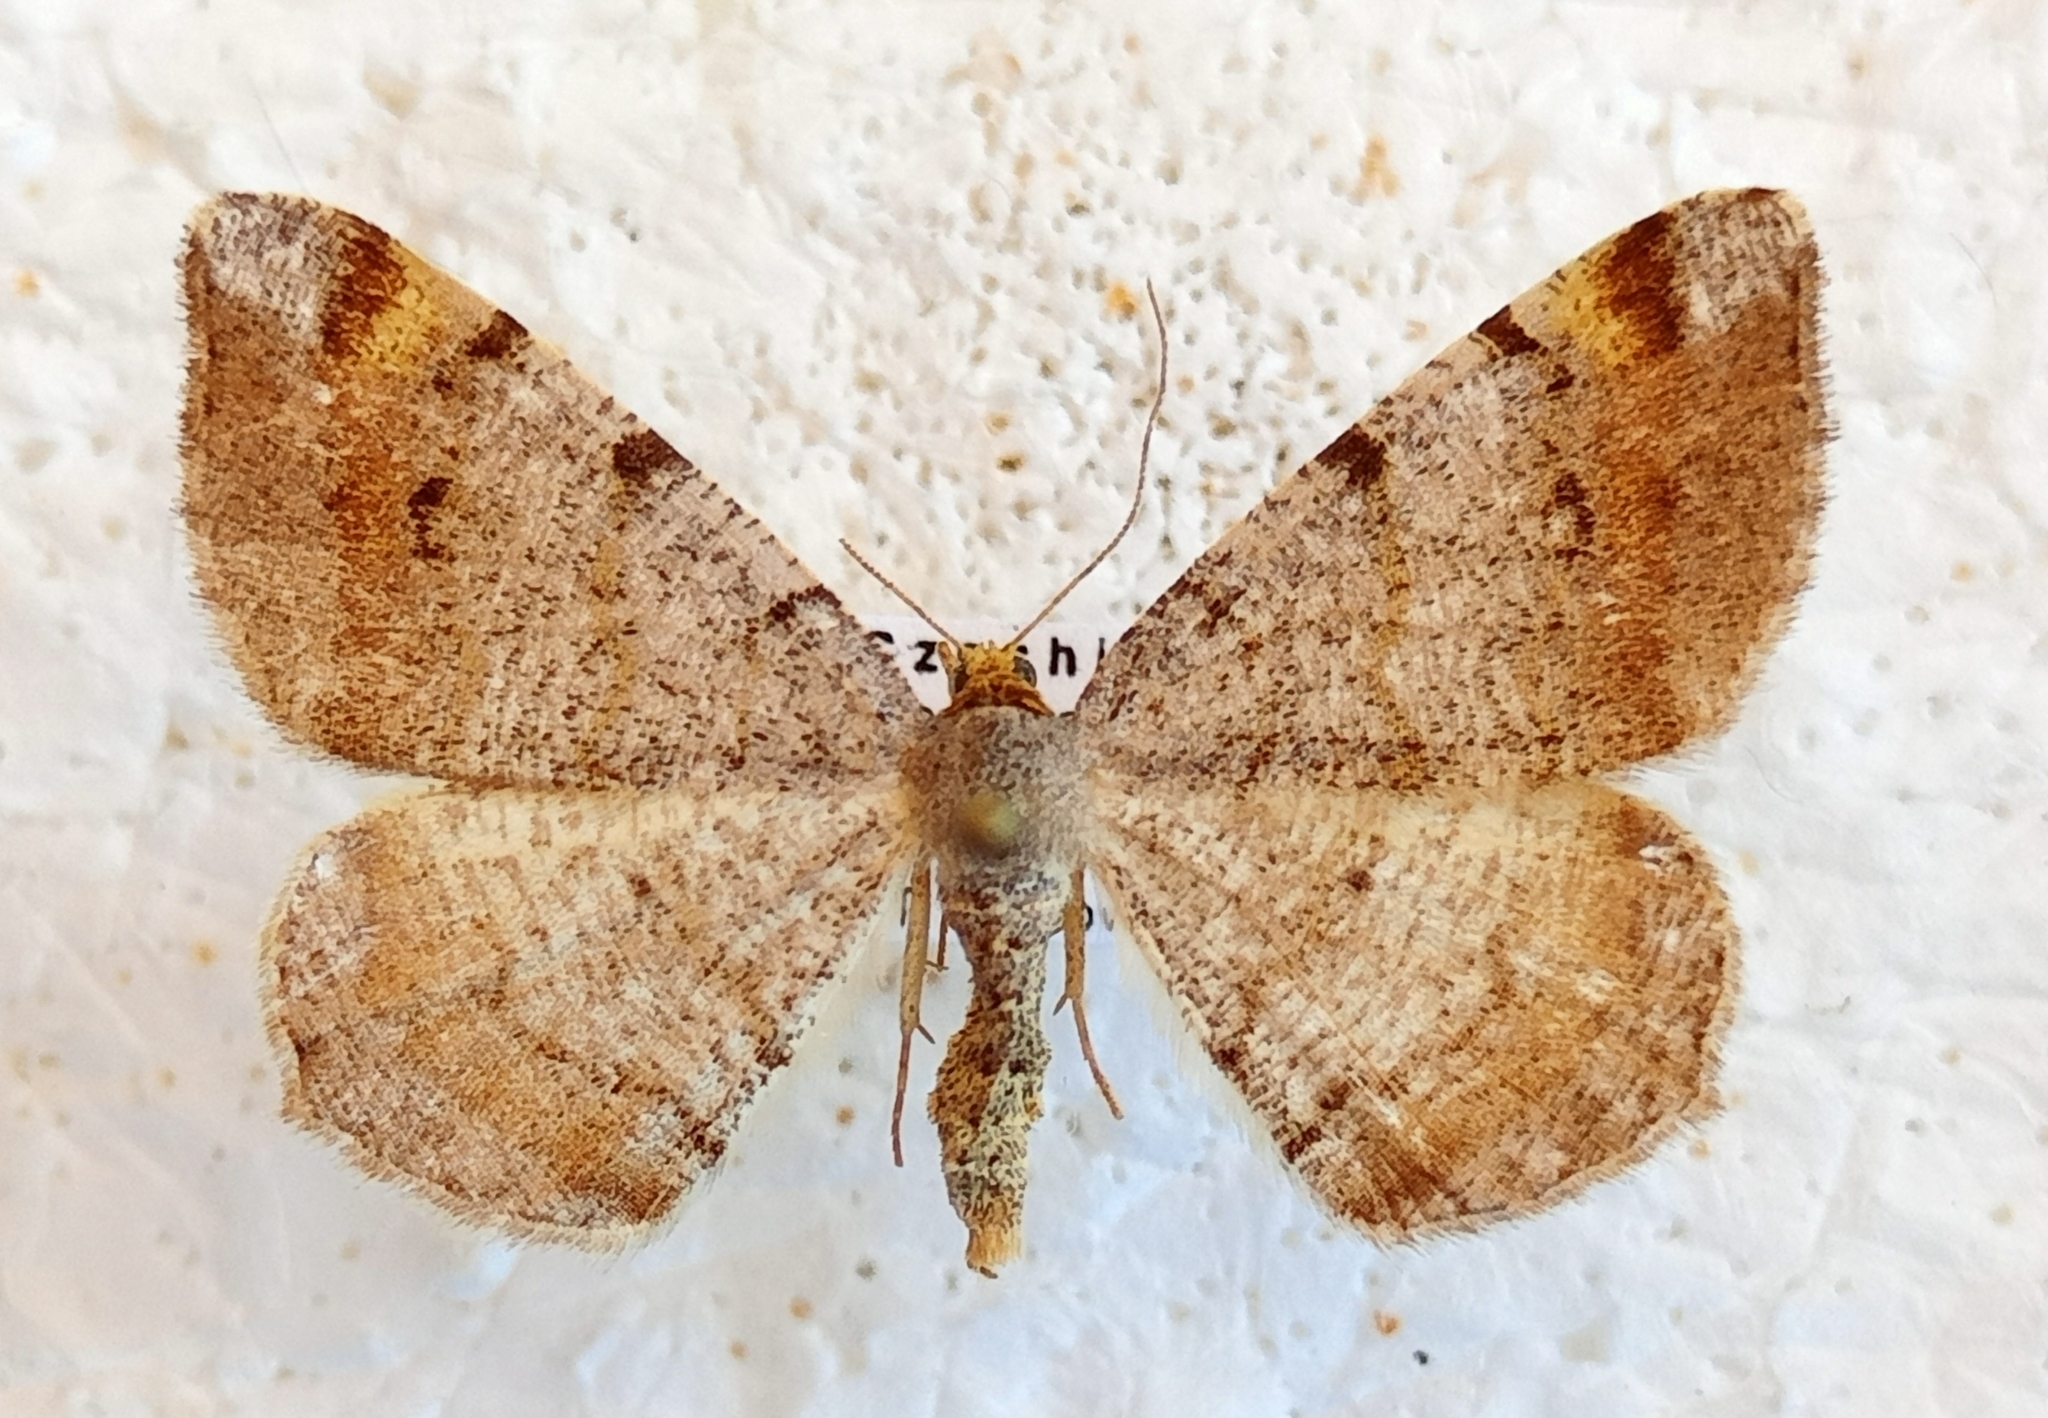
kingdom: Animalia
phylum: Arthropoda
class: Insecta
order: Lepidoptera
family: Geometridae
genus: Macaria
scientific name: Macaria liturata
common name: Tawny-barred angle
